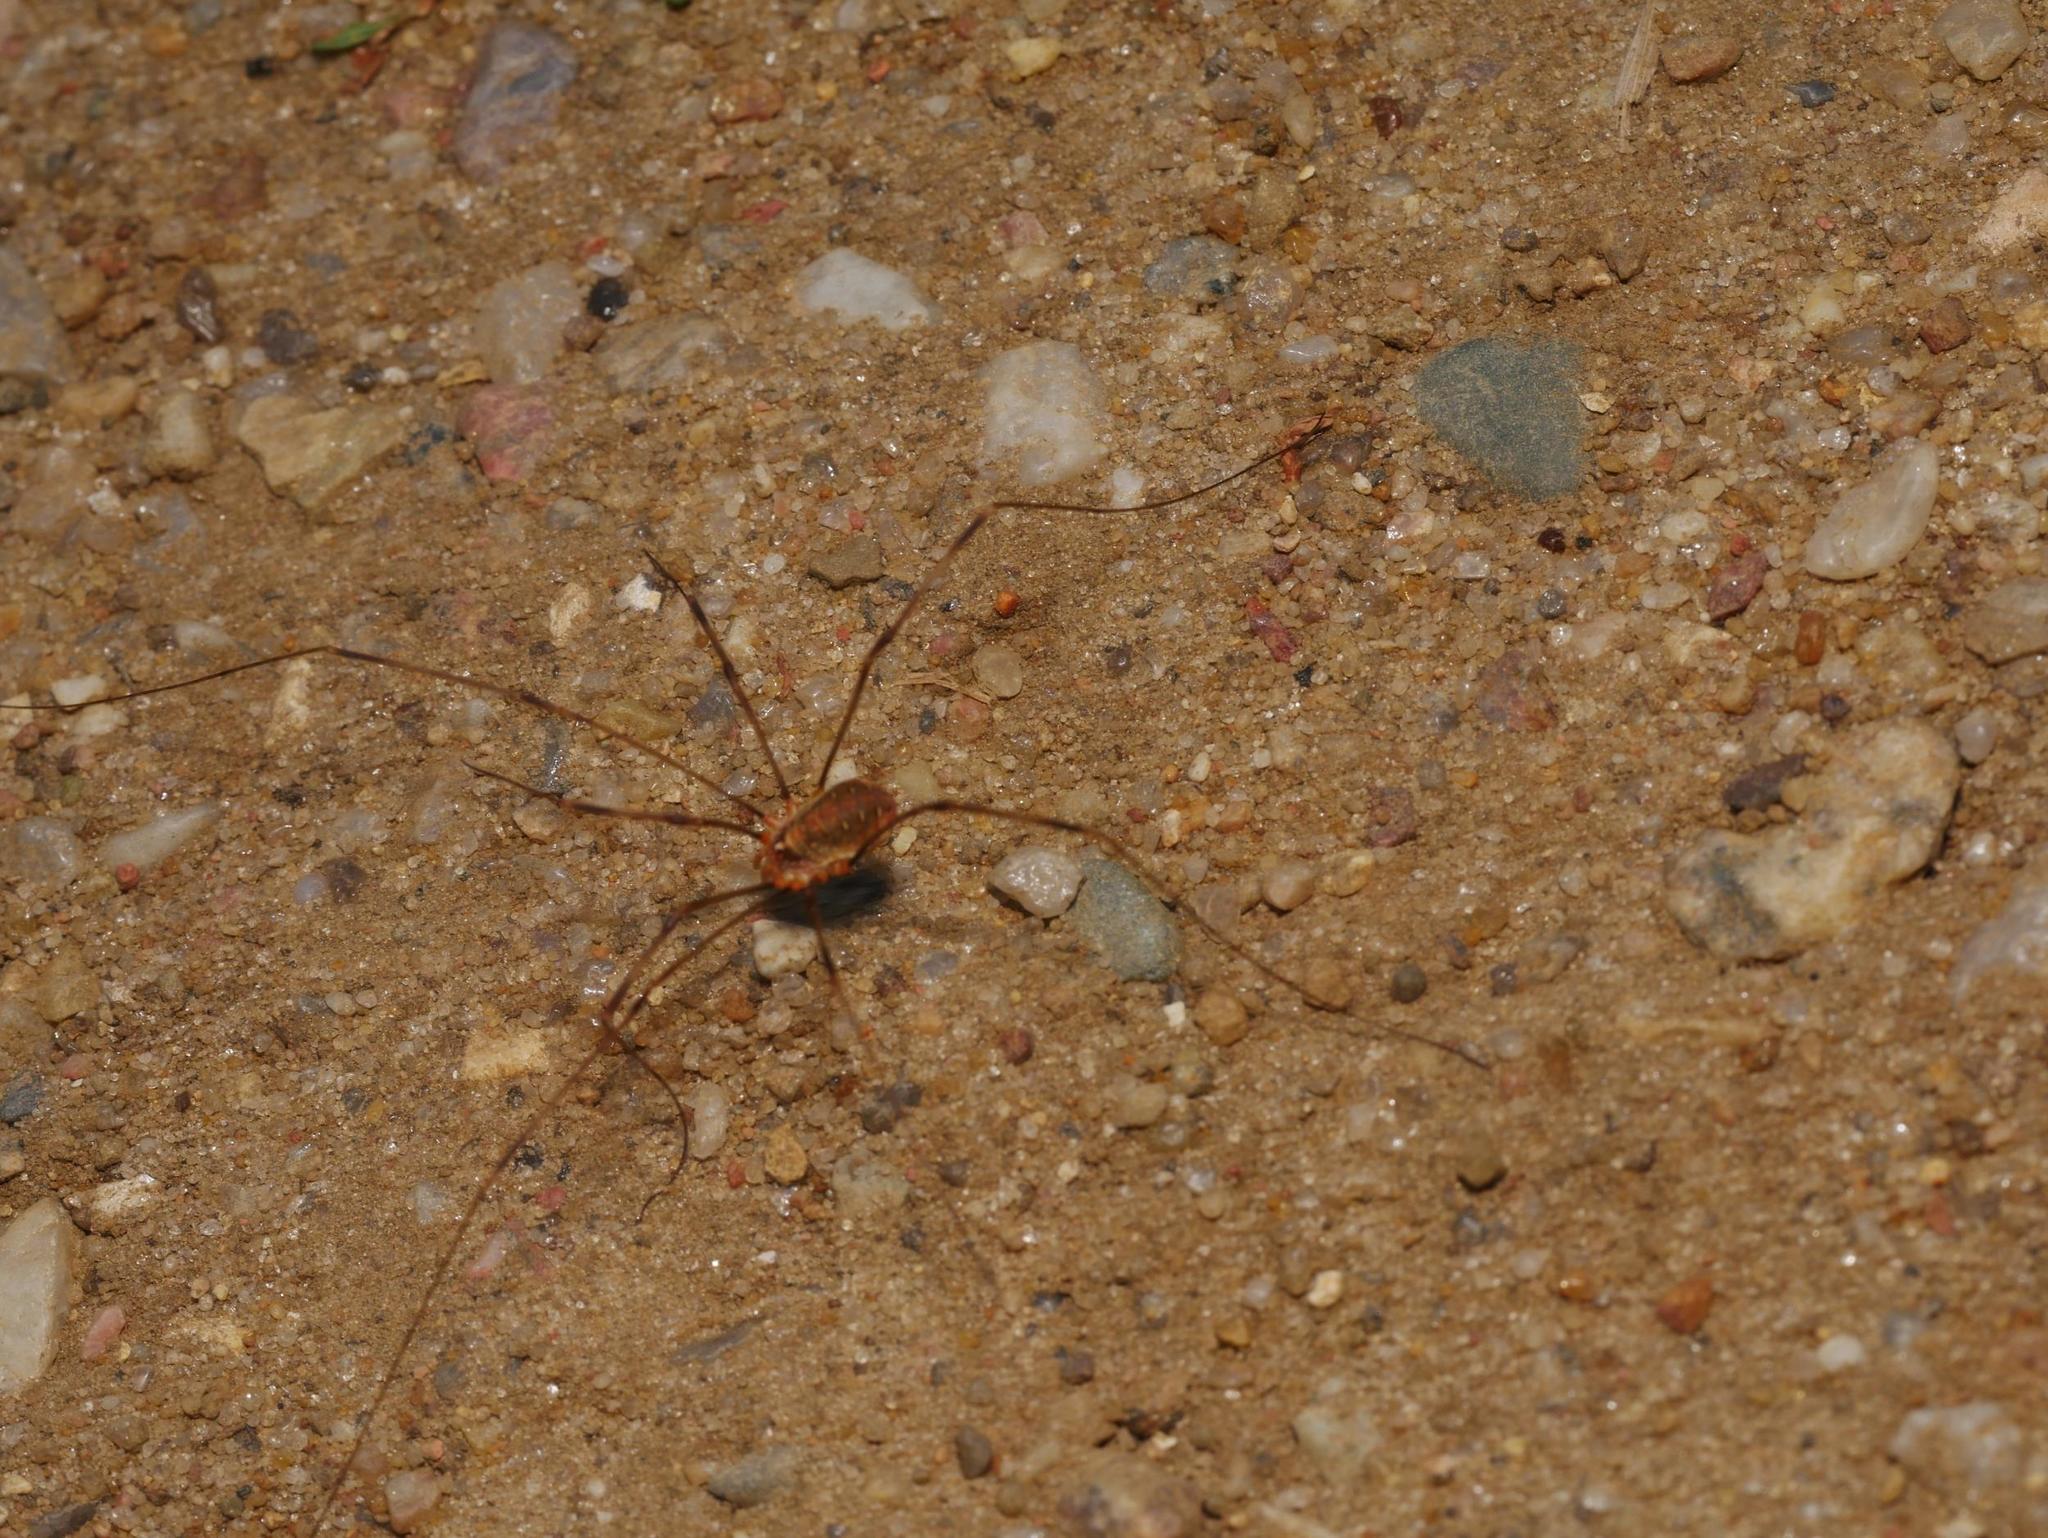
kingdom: Animalia
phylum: Arthropoda
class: Arachnida
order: Opiliones
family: Phalangiidae
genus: Opilio
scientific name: Opilio canestrinii
